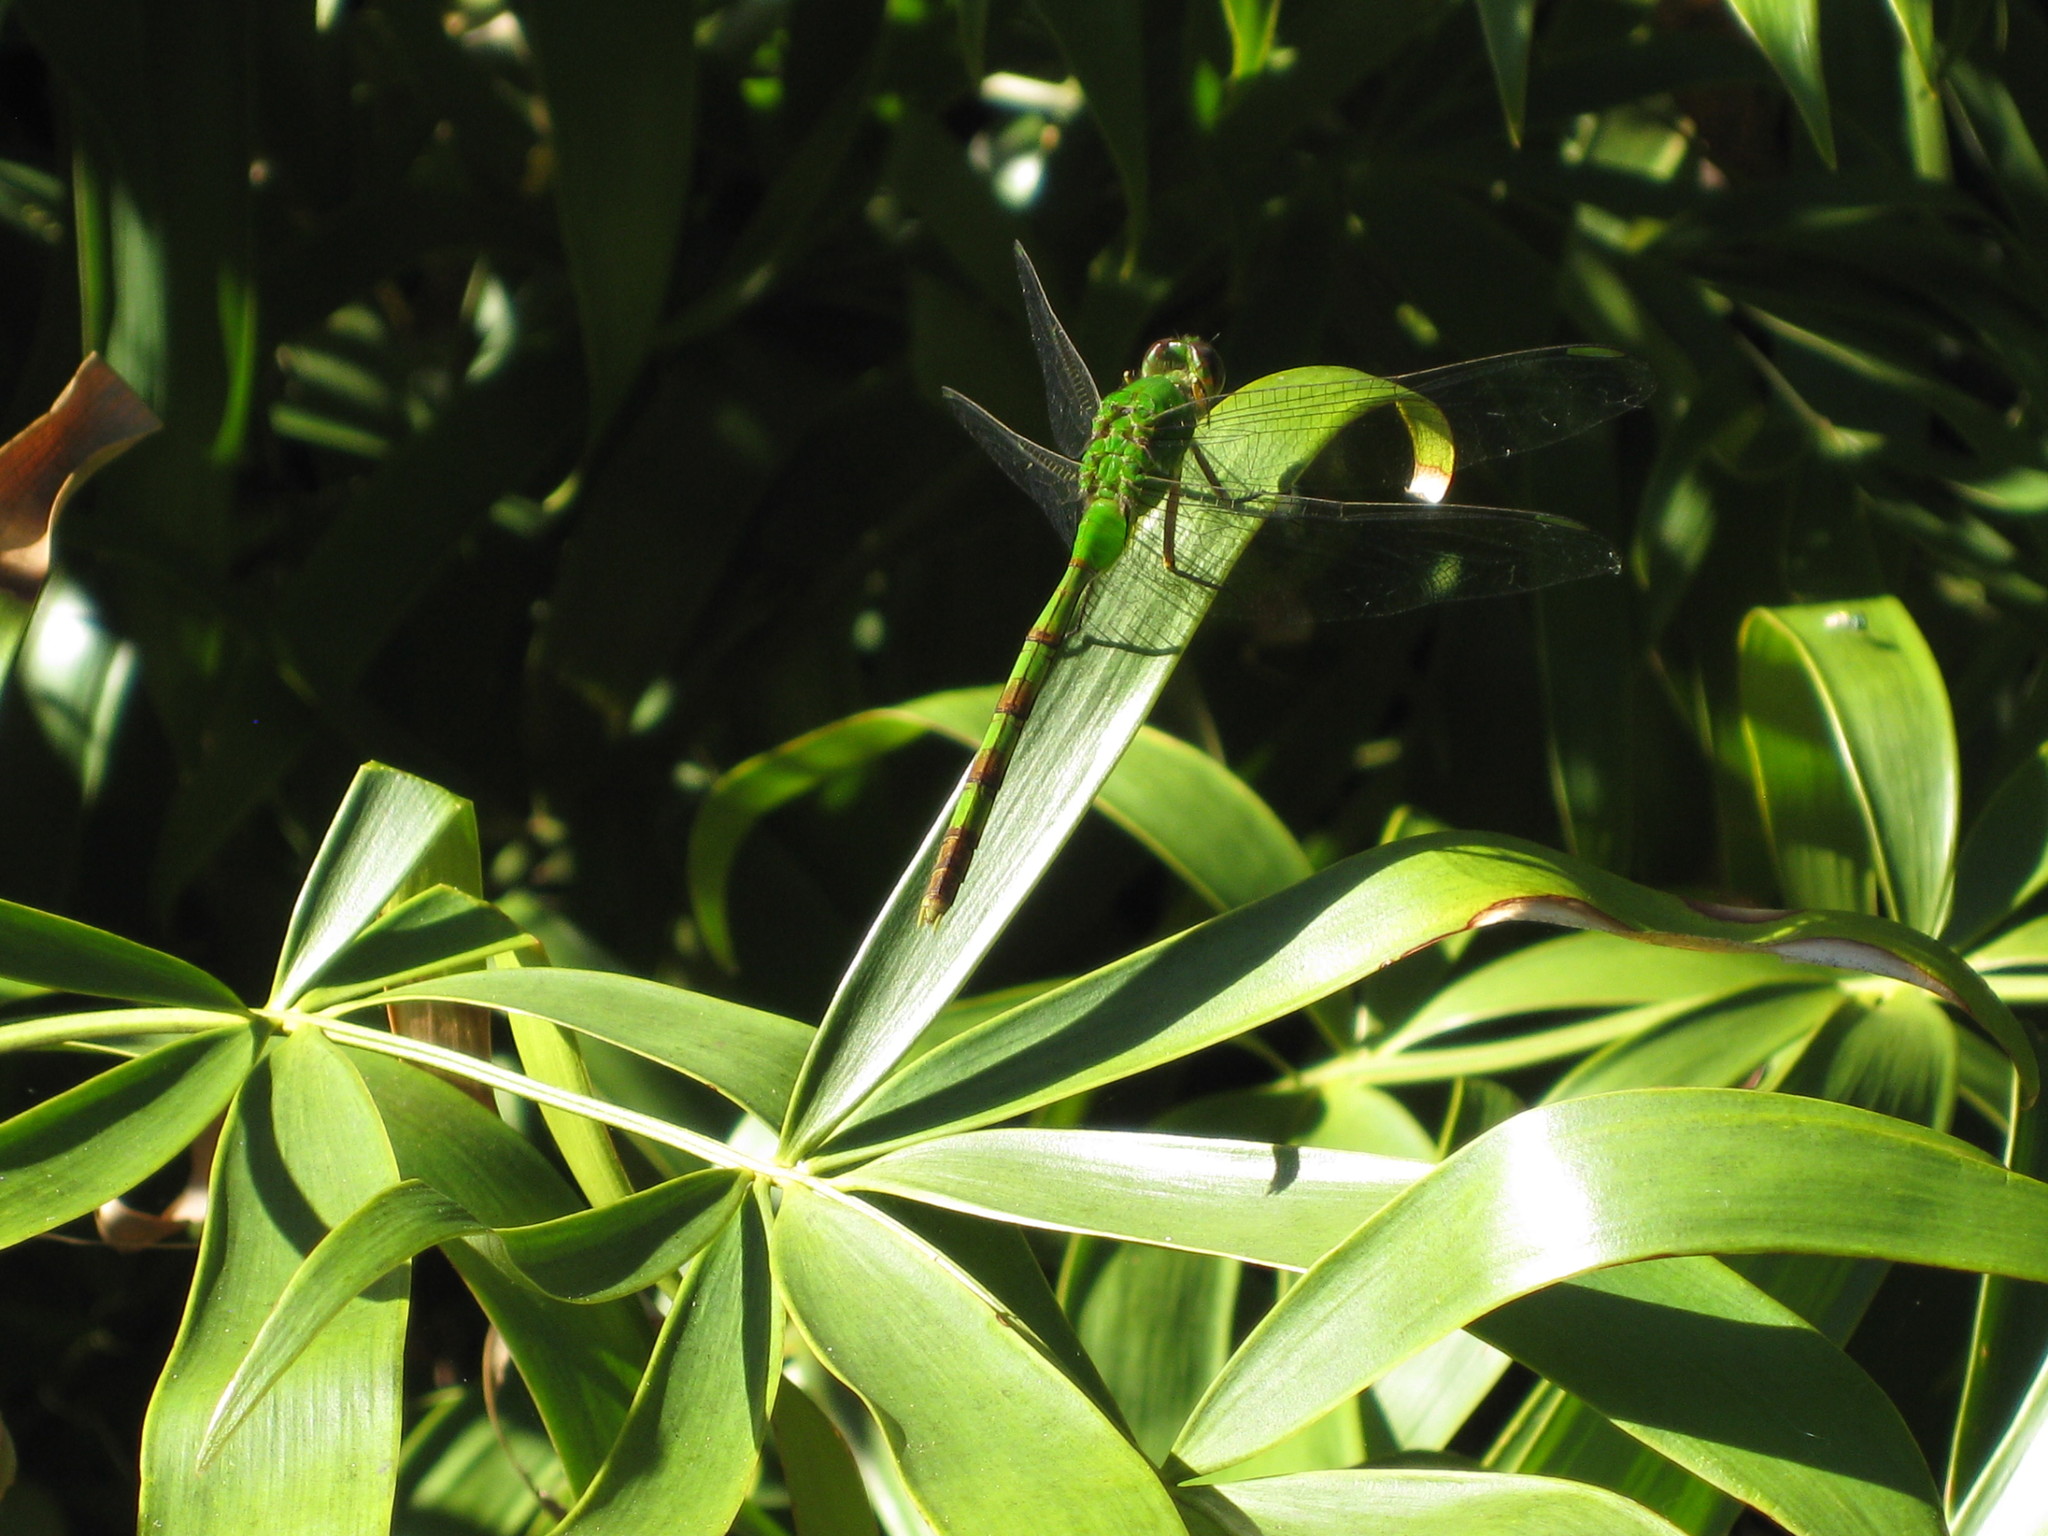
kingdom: Animalia
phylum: Arthropoda
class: Insecta
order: Odonata
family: Libellulidae
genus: Erythemis
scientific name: Erythemis vesiculosa
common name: Great pondhawk
